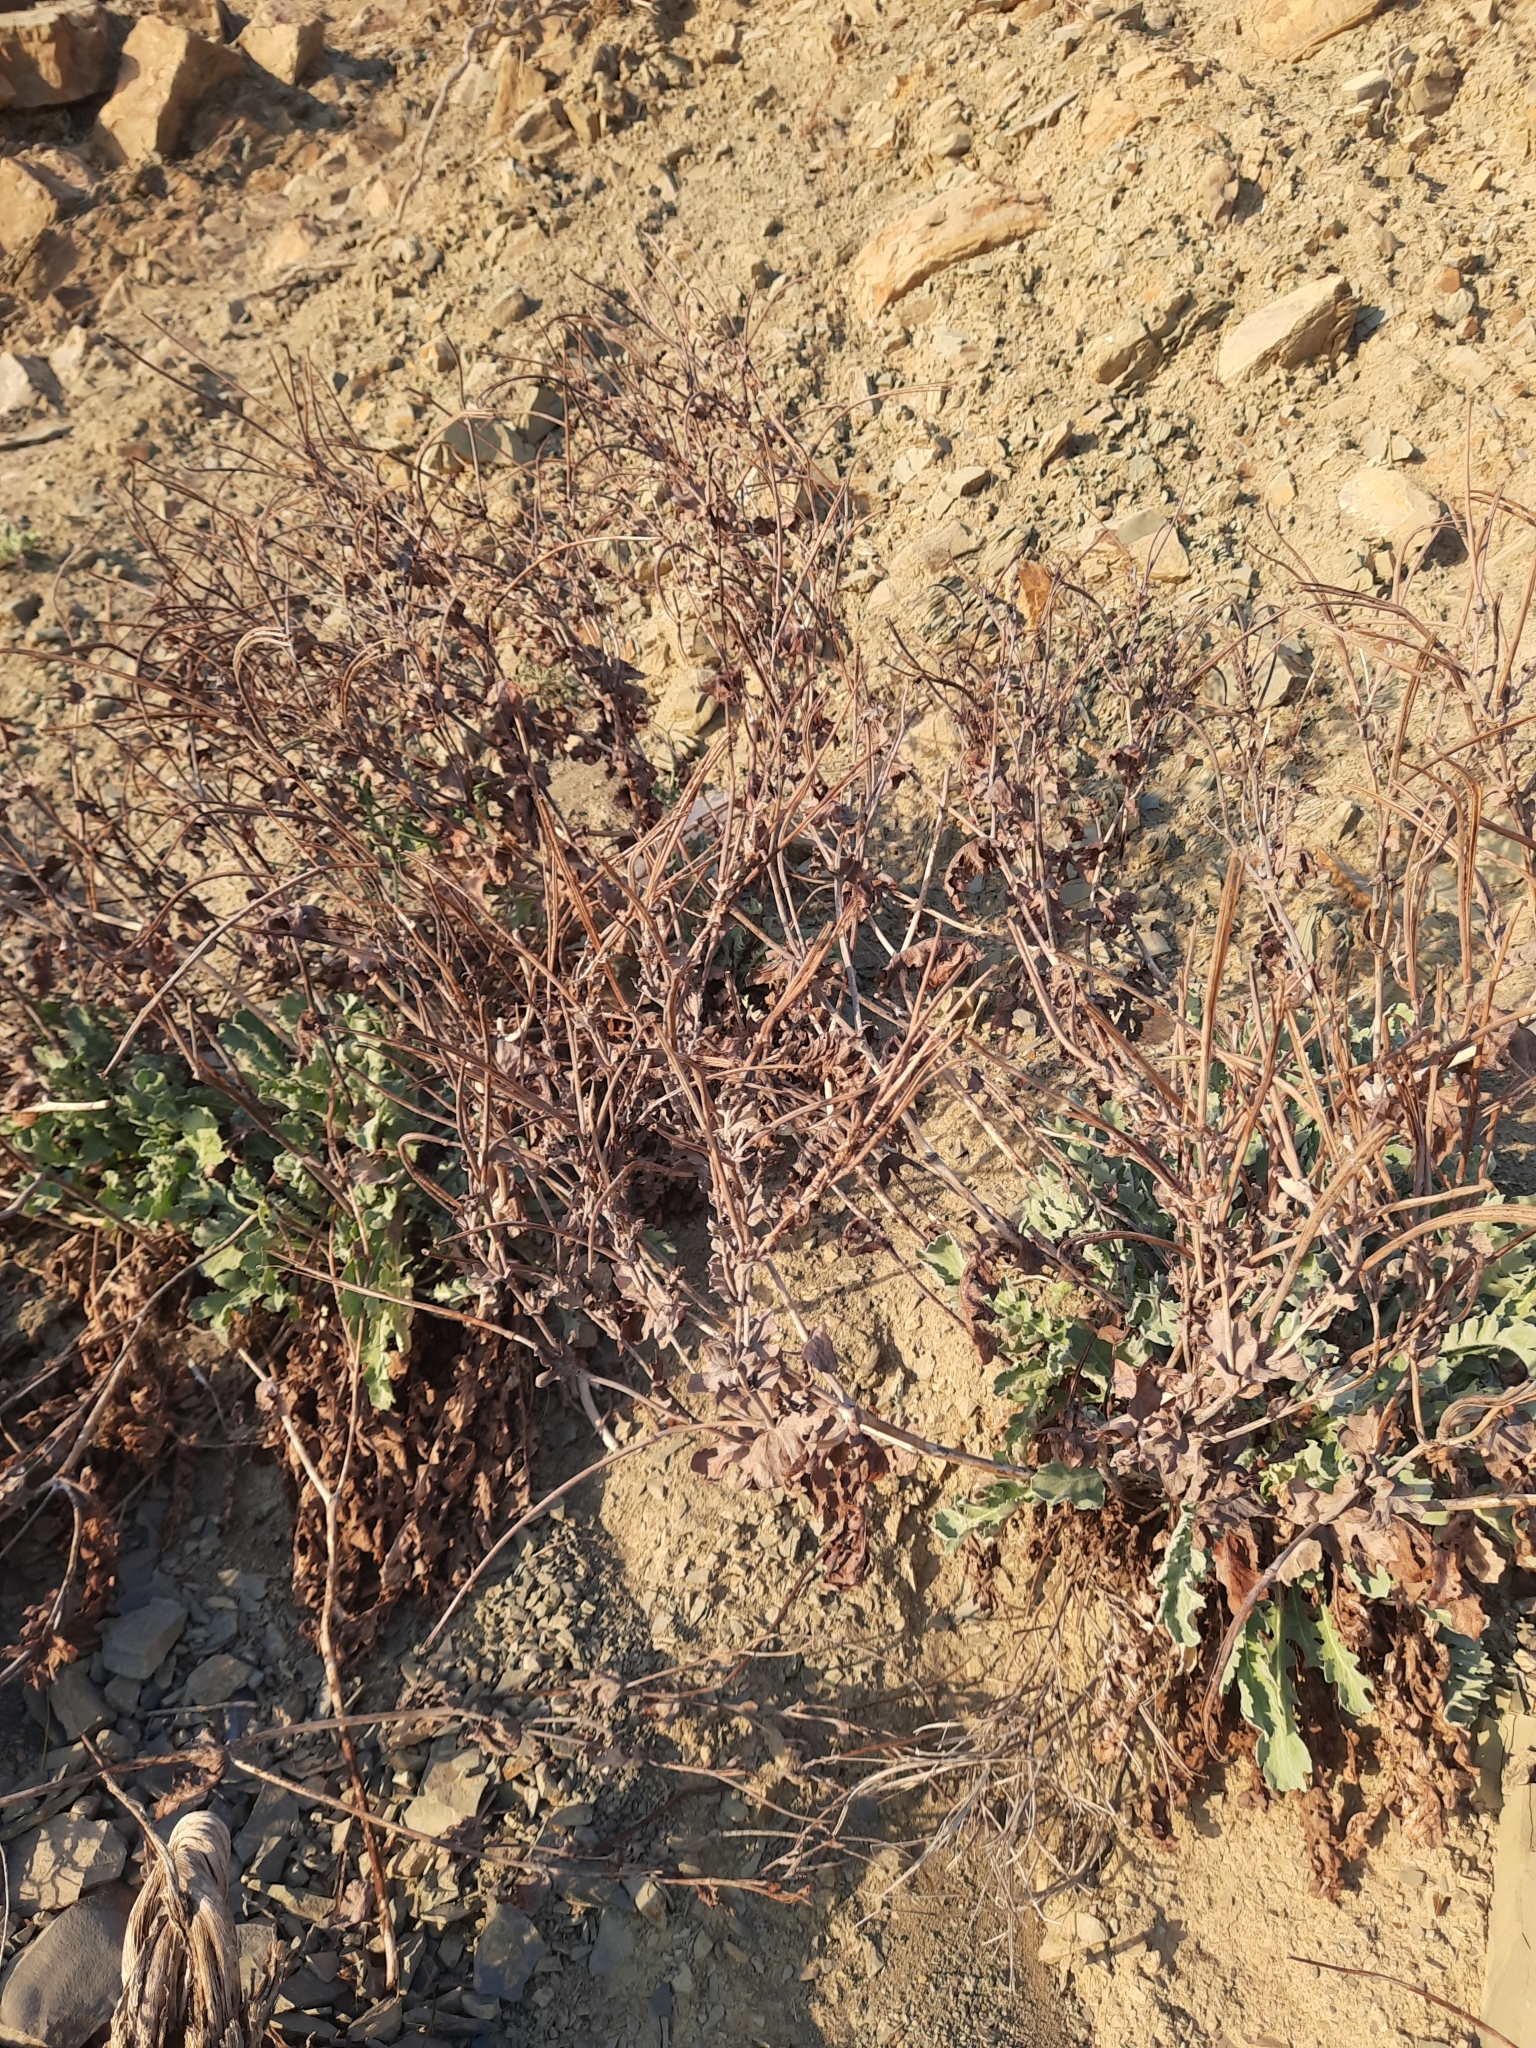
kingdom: Plantae
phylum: Tracheophyta
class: Magnoliopsida
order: Ranunculales
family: Papaveraceae
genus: Glaucium
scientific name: Glaucium flavum
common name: Yellow horned-poppy
